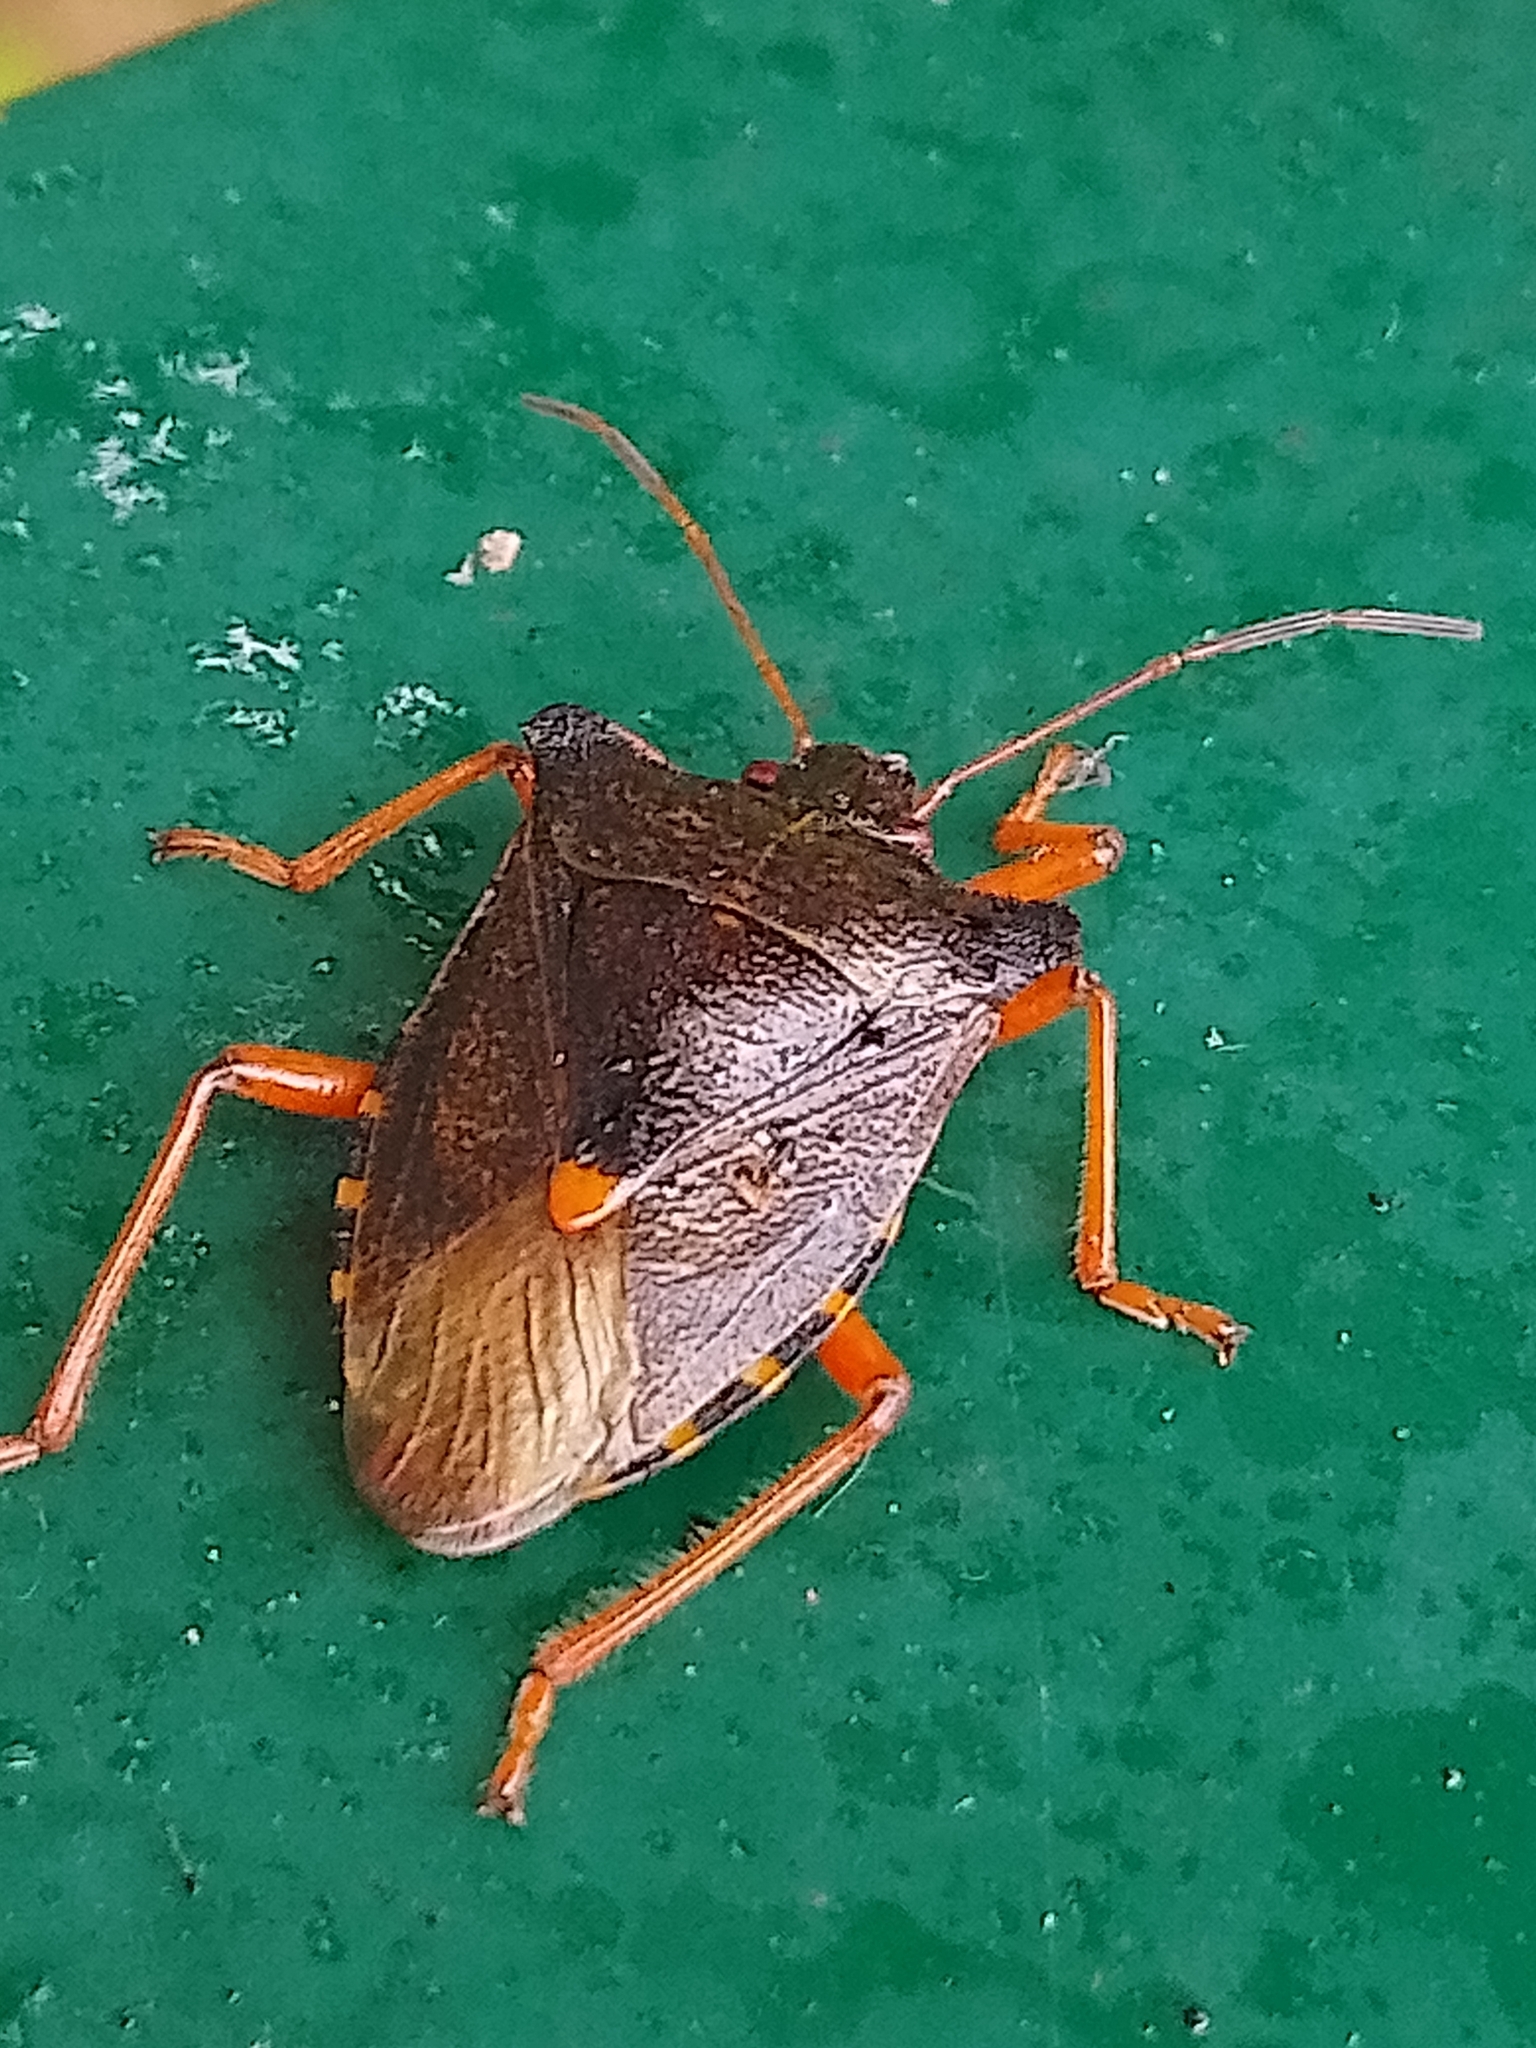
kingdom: Animalia
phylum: Arthropoda
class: Insecta
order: Hemiptera
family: Pentatomidae
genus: Pentatoma
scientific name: Pentatoma rufipes
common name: Forest bug
